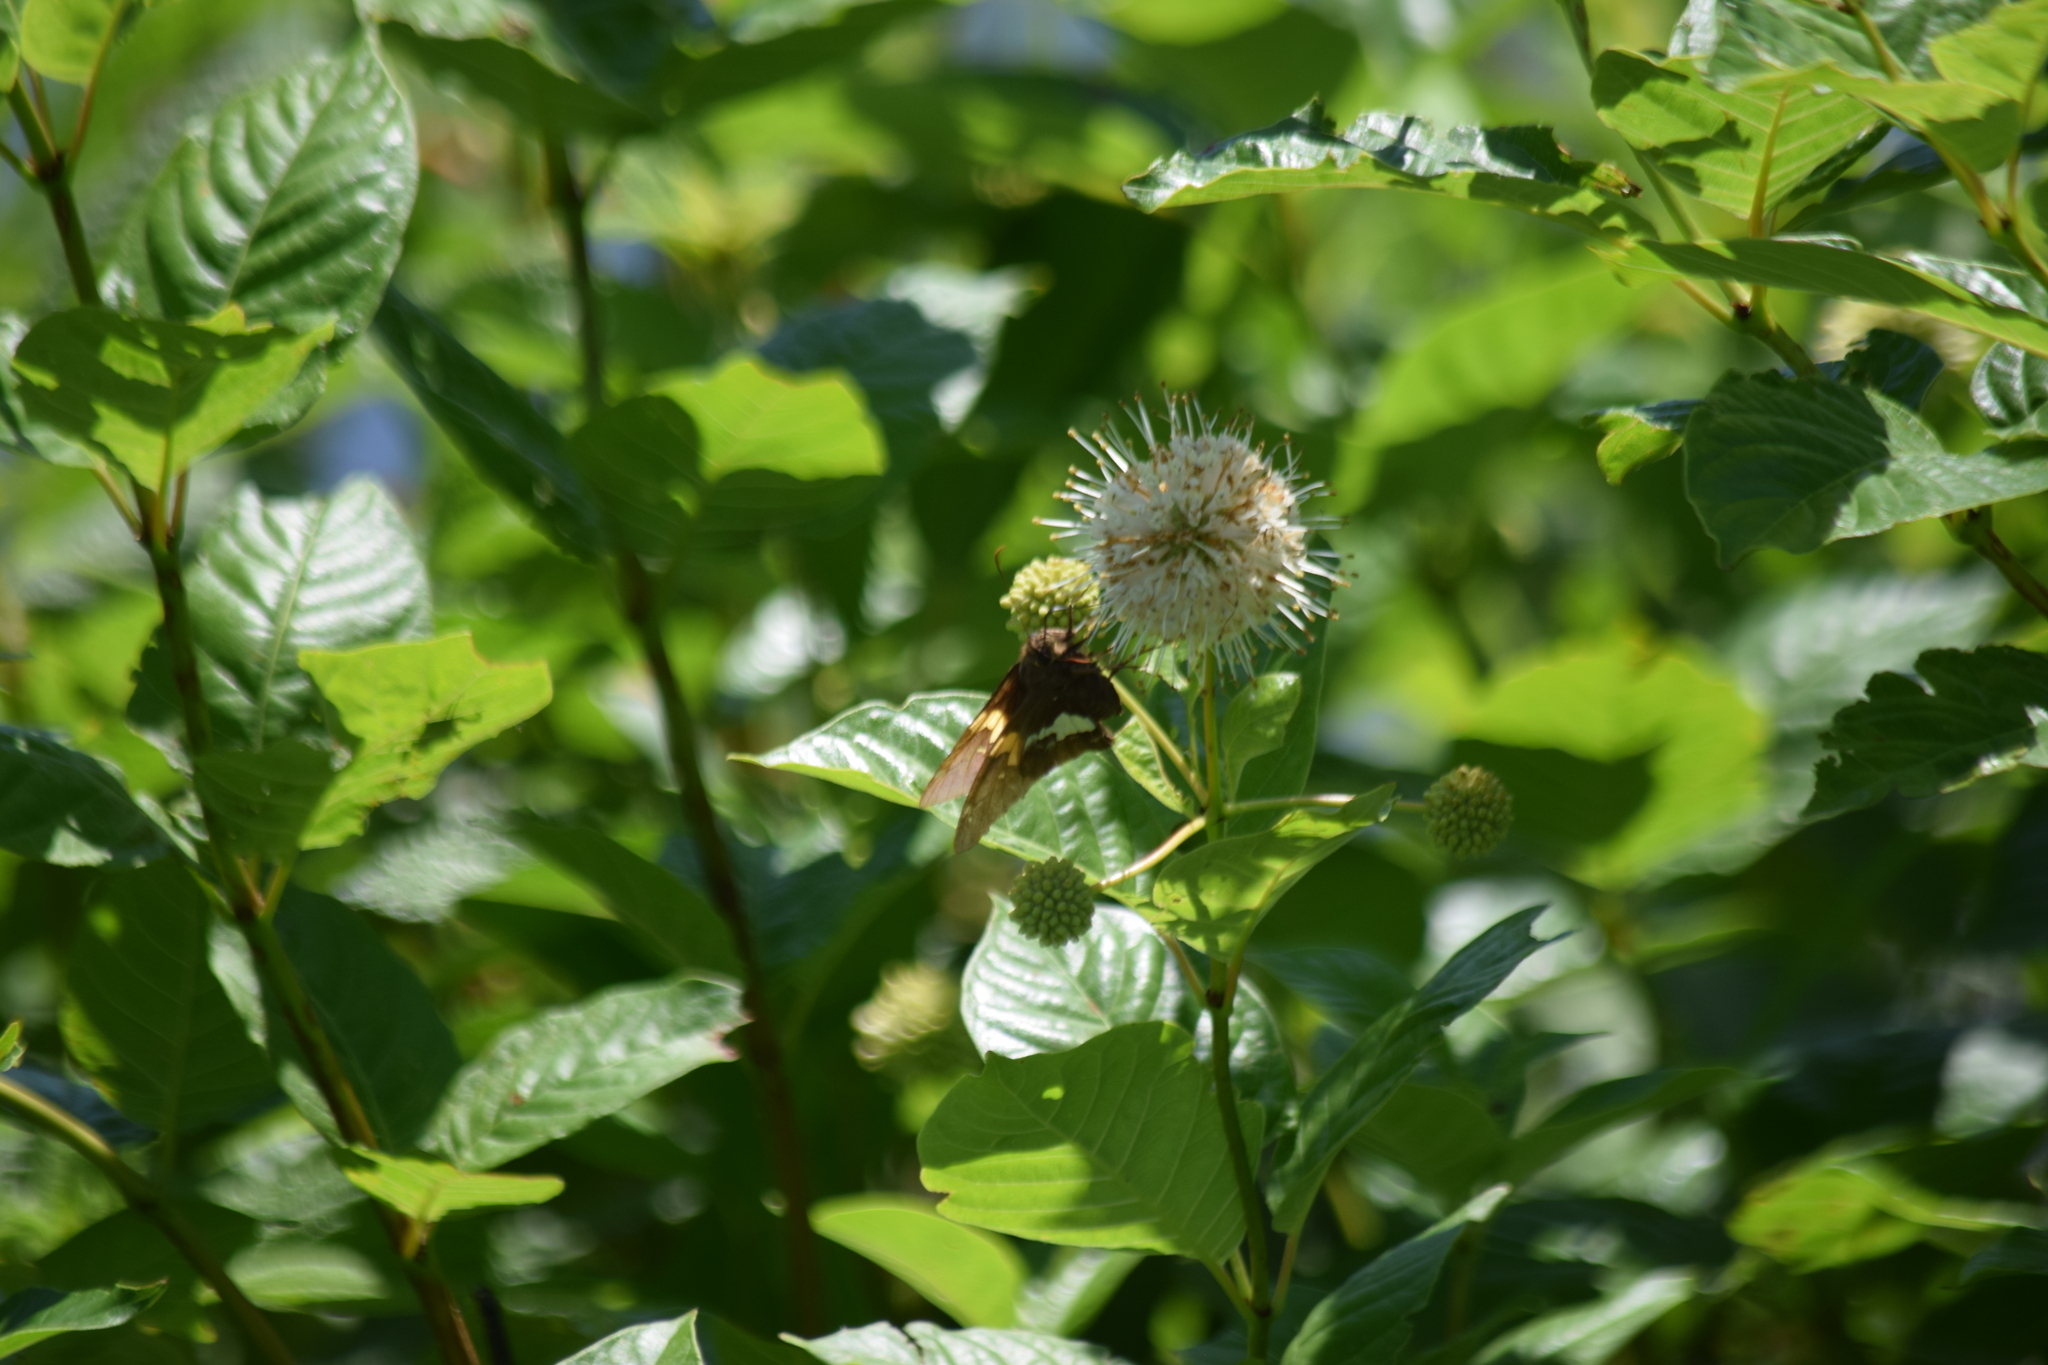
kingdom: Animalia
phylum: Arthropoda
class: Insecta
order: Lepidoptera
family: Hesperiidae
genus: Epargyreus
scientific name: Epargyreus clarus
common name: Silver-spotted skipper
